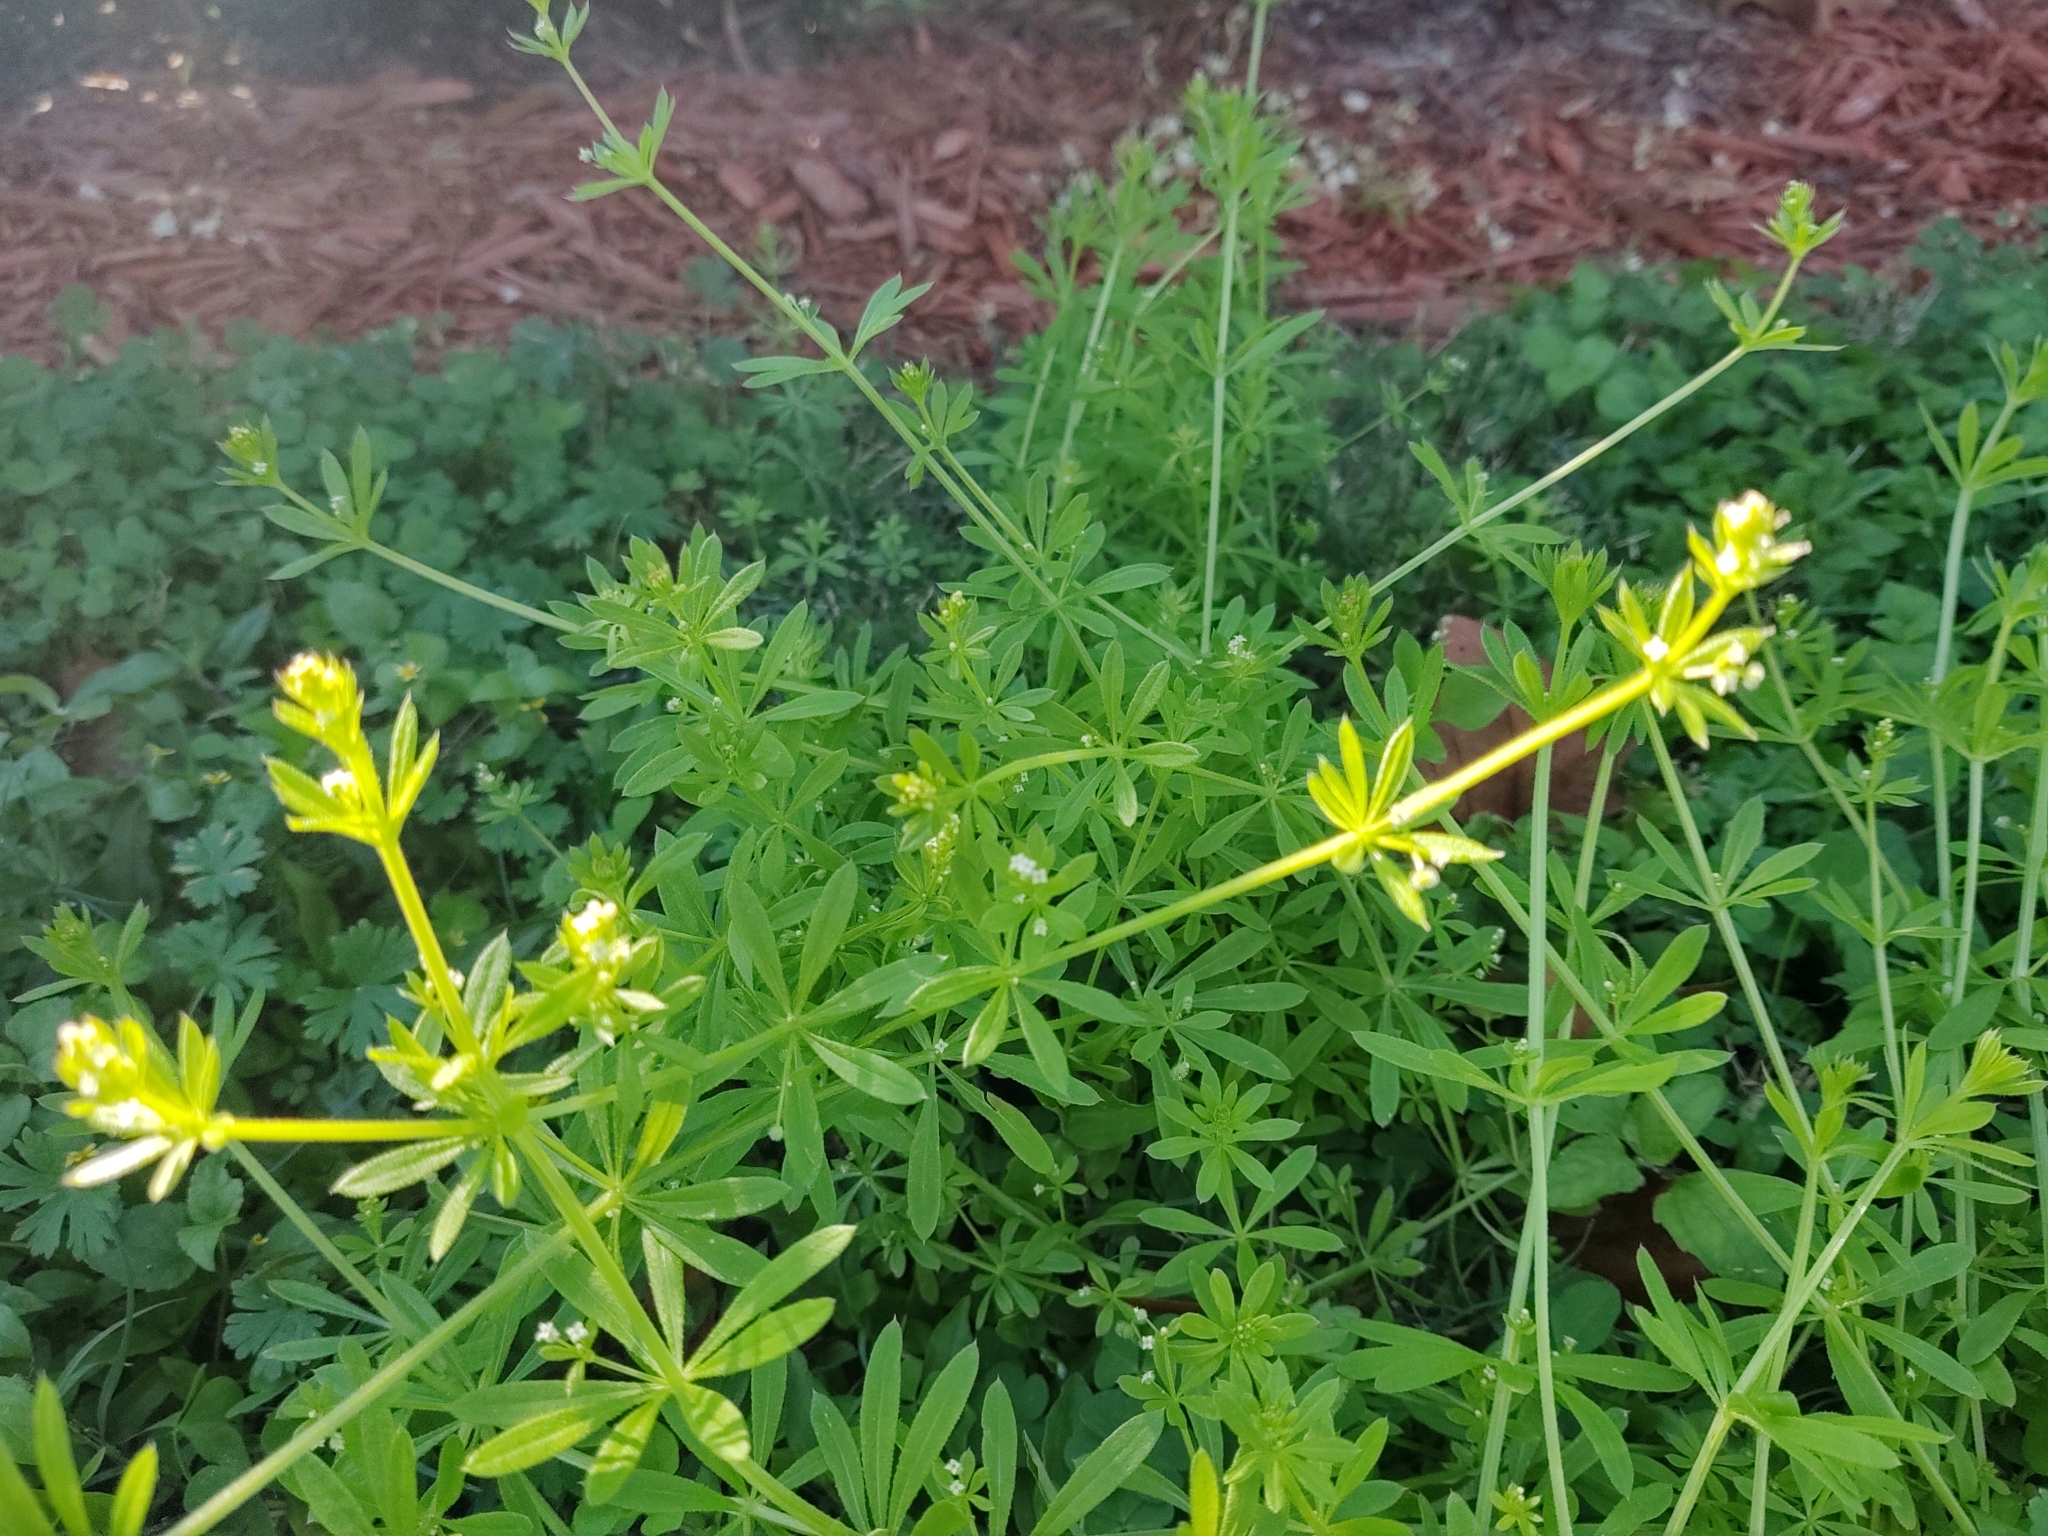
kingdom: Plantae
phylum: Tracheophyta
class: Magnoliopsida
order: Gentianales
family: Rubiaceae
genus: Galium
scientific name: Galium aparine
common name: Cleavers
